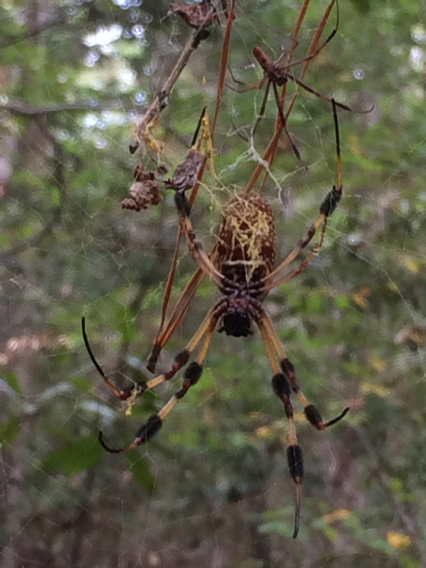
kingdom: Animalia
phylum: Arthropoda
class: Arachnida
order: Araneae
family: Araneidae
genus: Trichonephila
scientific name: Trichonephila clavipes
